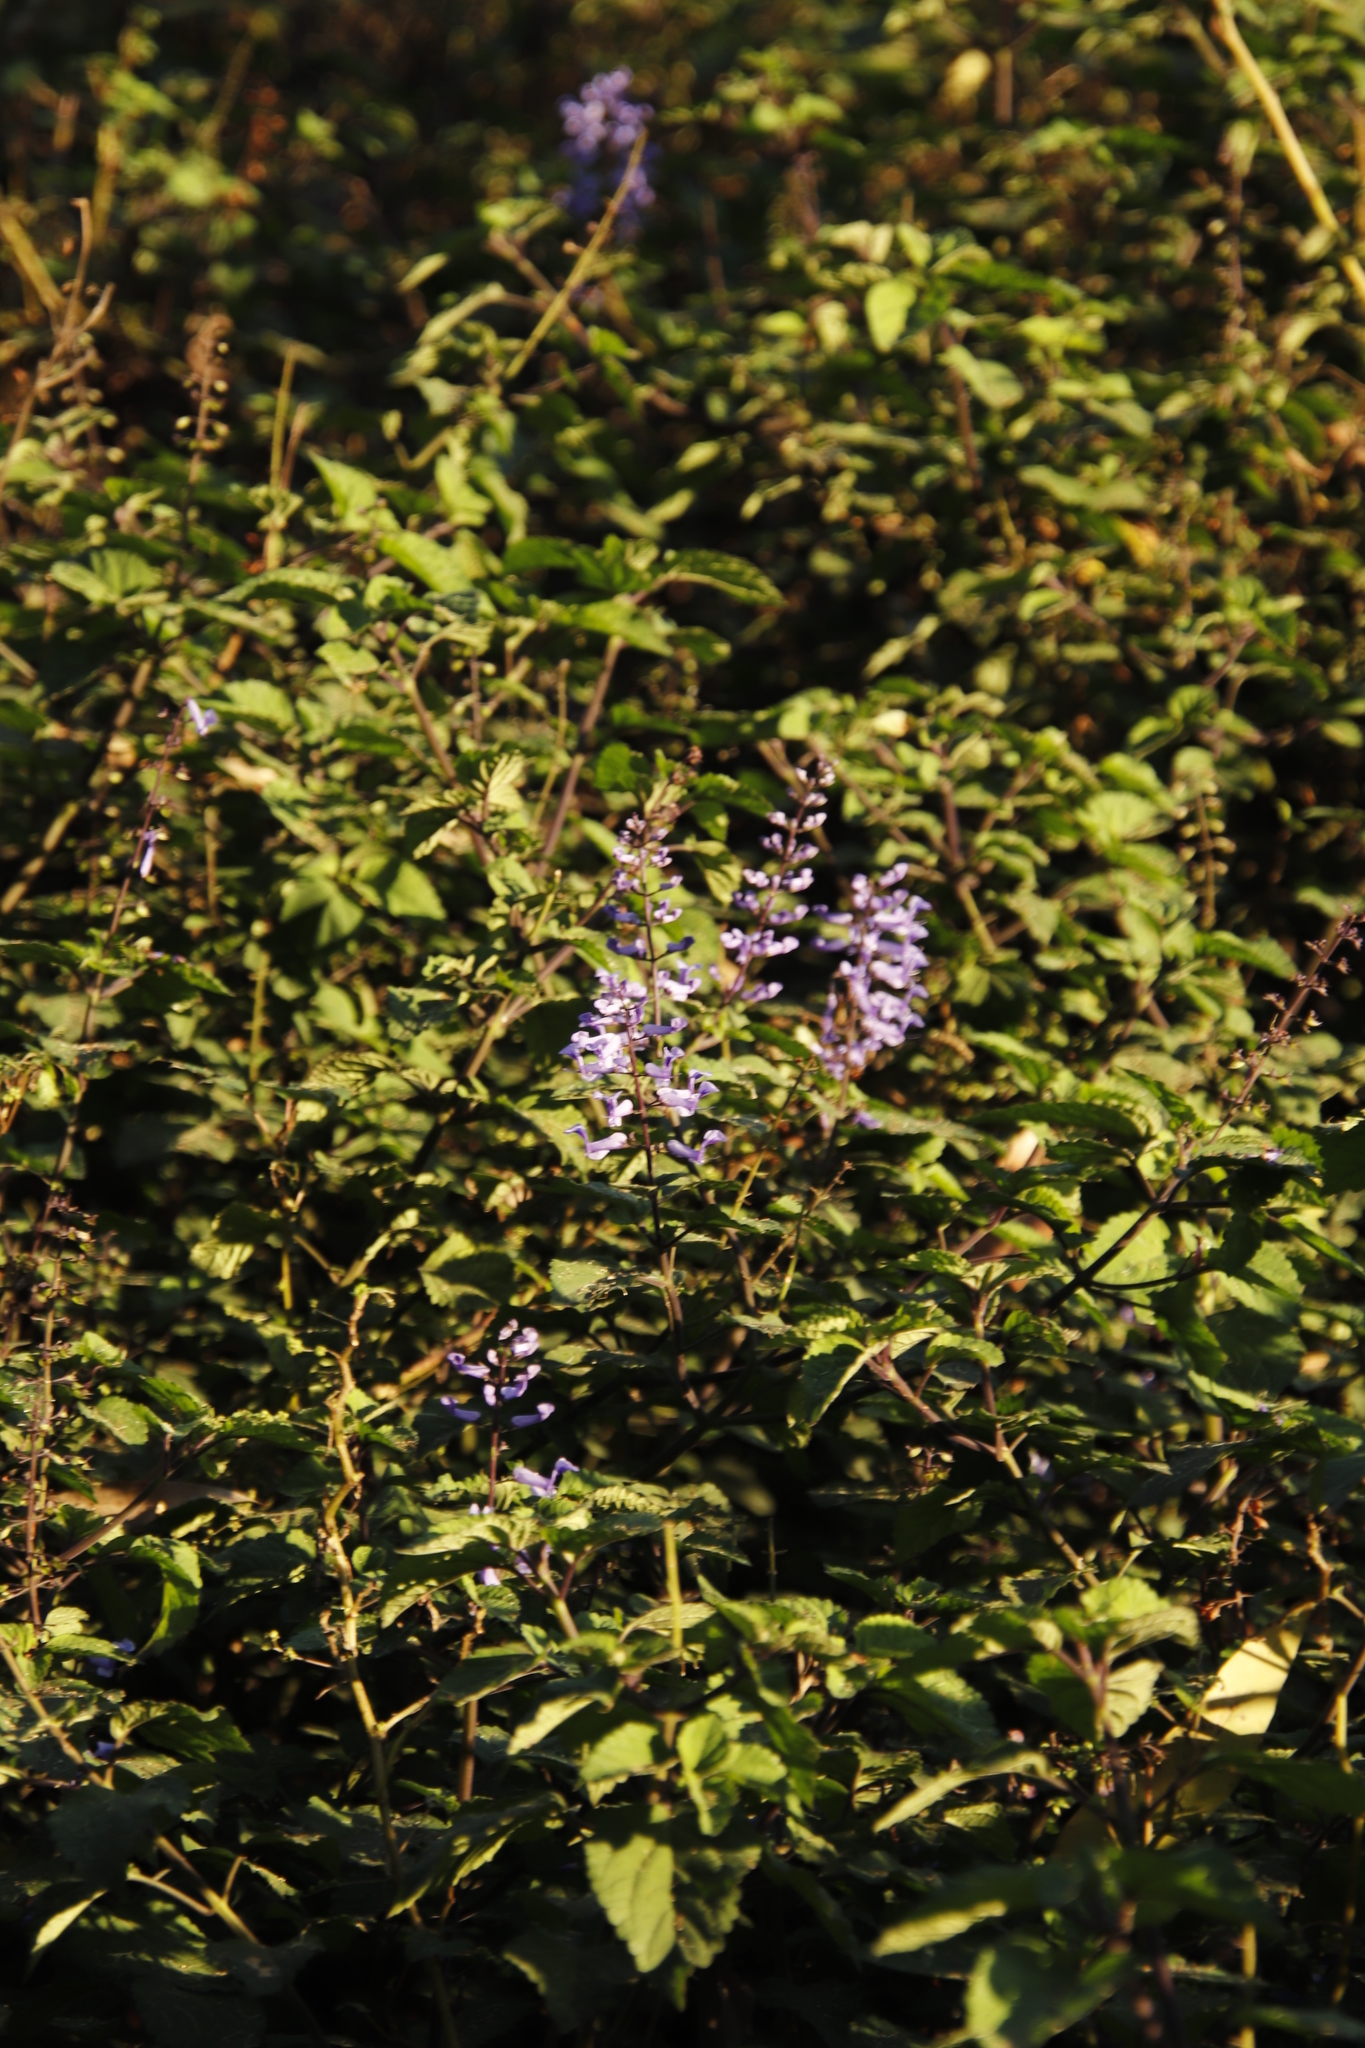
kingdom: Plantae
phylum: Tracheophyta
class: Magnoliopsida
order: Lamiales
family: Lamiaceae
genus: Plectranthus
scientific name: Plectranthus ecklonii
